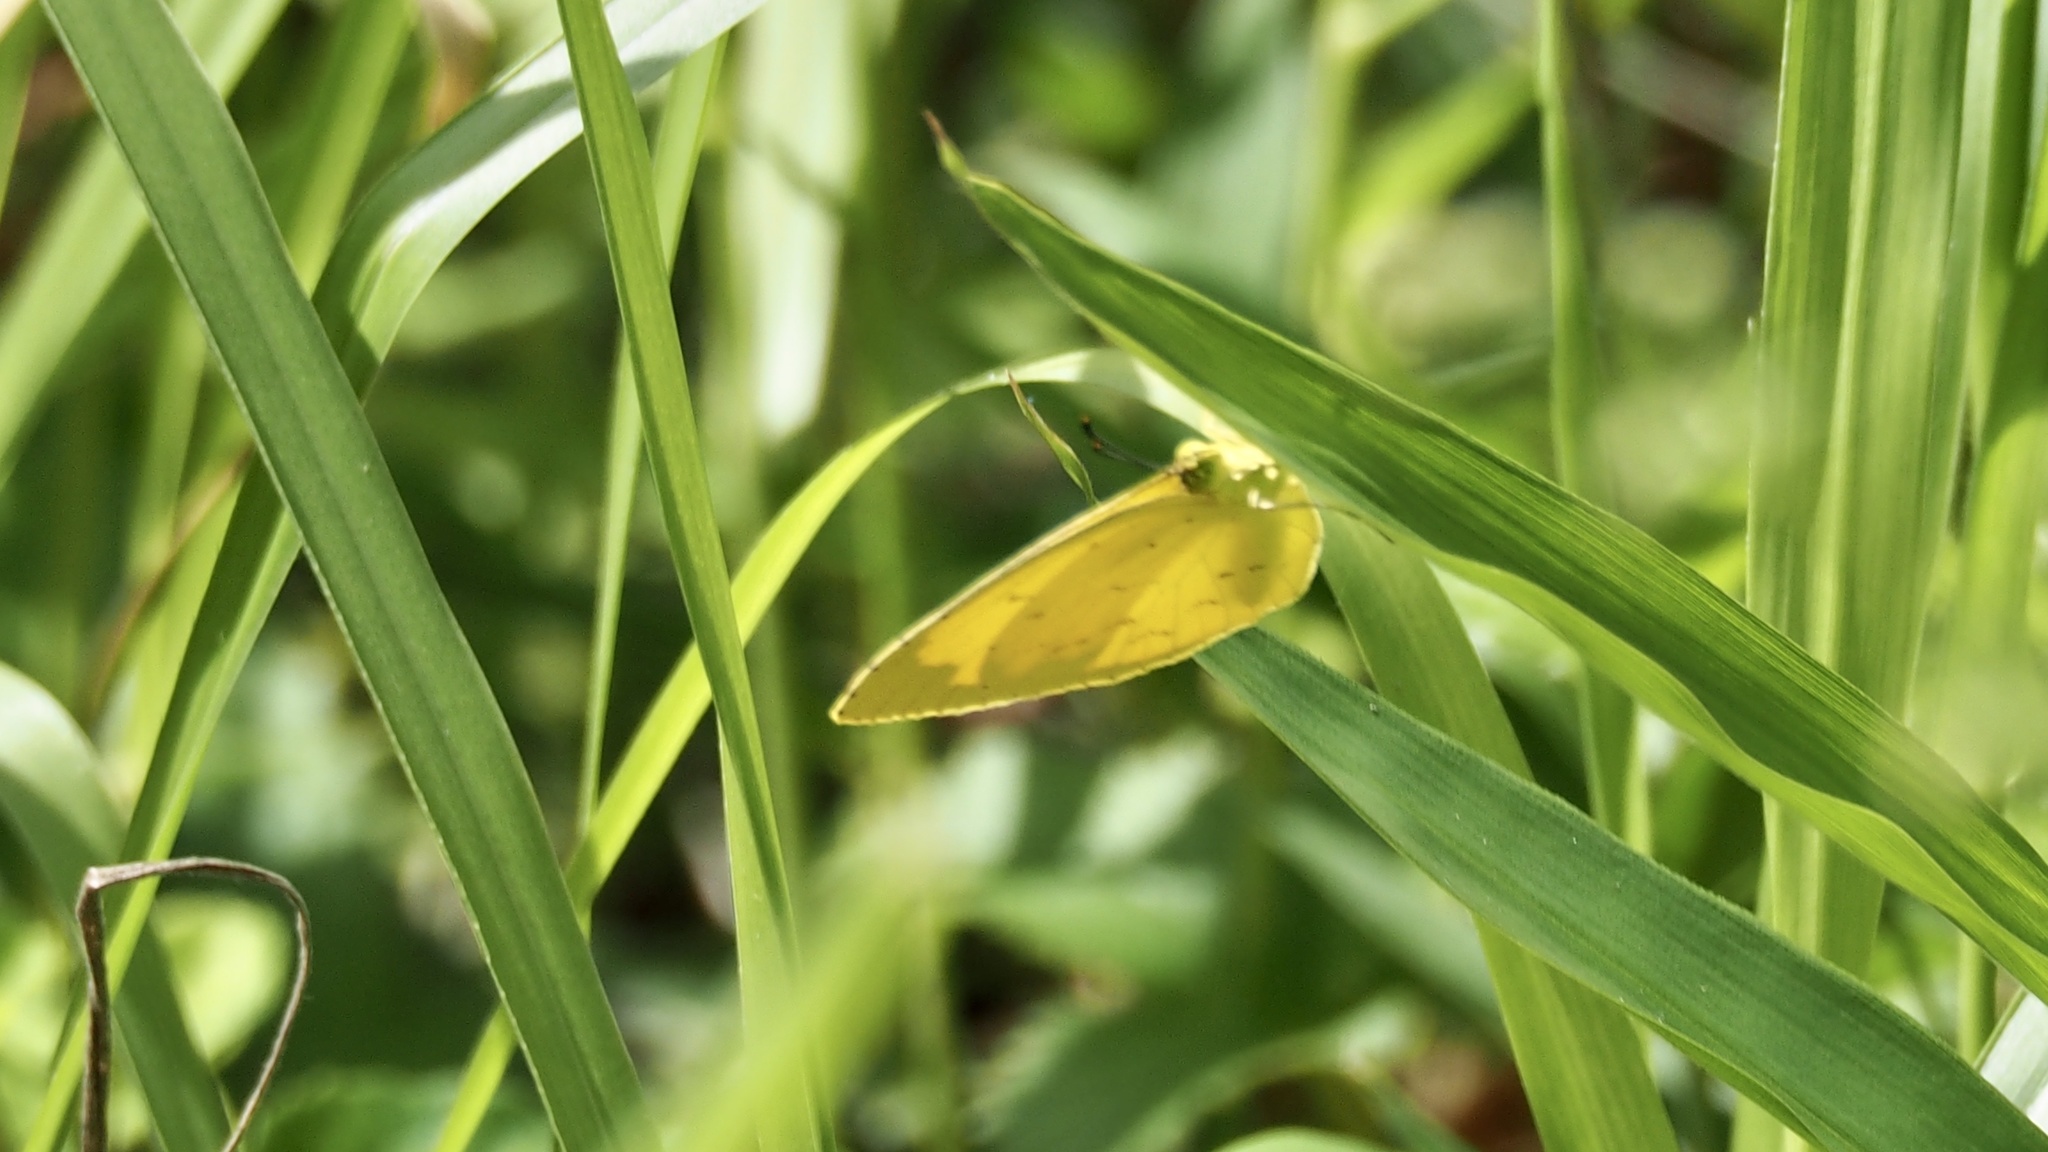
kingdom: Animalia
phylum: Arthropoda
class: Insecta
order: Lepidoptera
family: Pieridae
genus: Eurema
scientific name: Eurema mandarina
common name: Japanese common grass yellow
